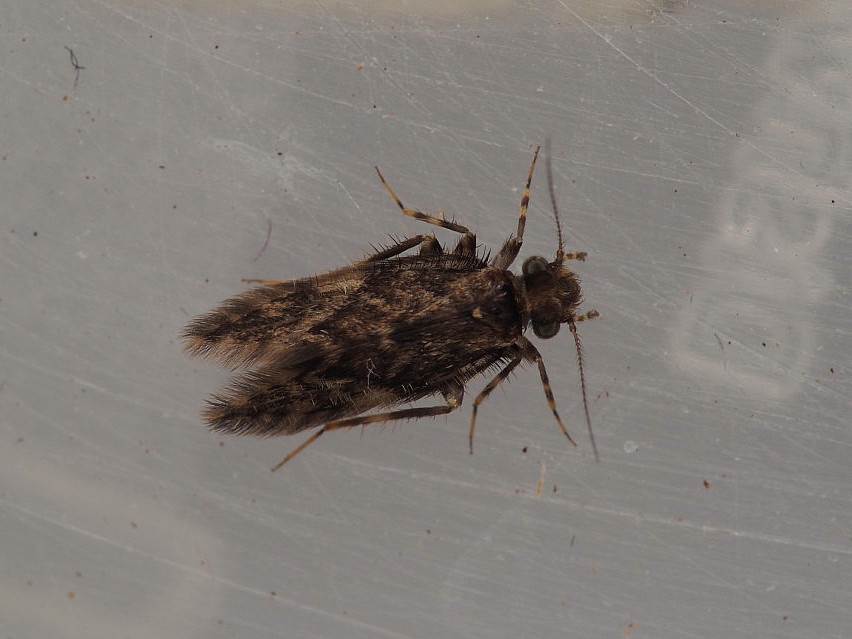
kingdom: Animalia
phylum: Arthropoda
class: Insecta
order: Psocodea
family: Lepidopsocidae
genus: Echmepteryx
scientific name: Echmepteryx hamiltoni
